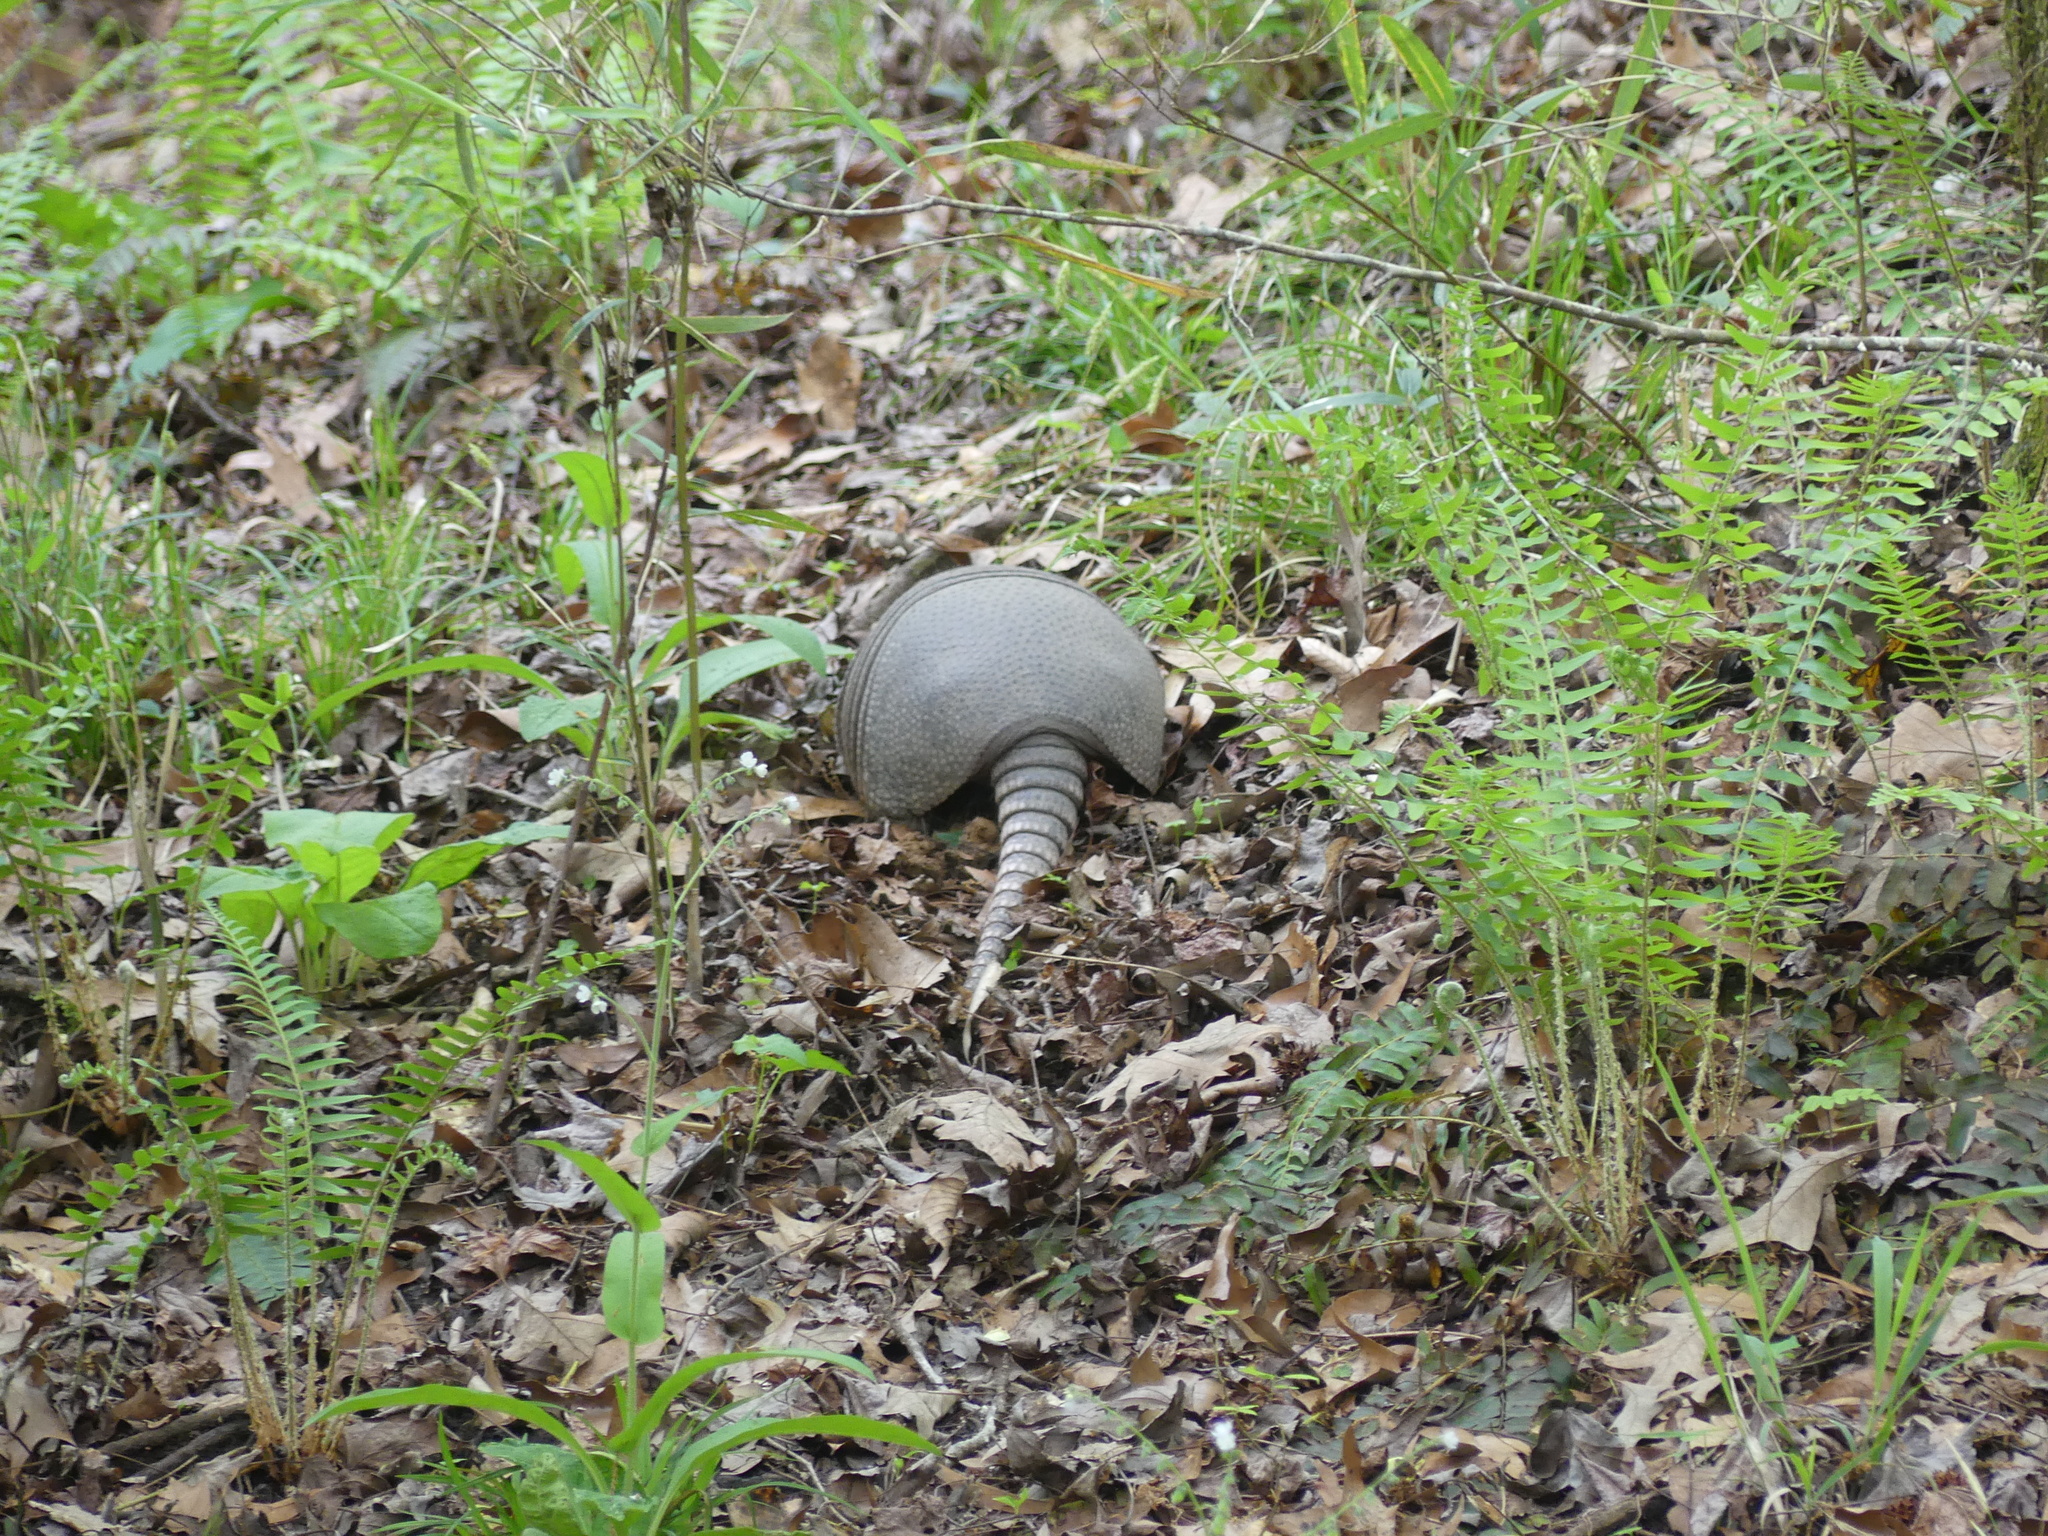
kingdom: Animalia
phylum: Chordata
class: Mammalia
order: Cingulata
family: Dasypodidae
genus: Dasypus
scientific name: Dasypus novemcinctus
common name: Nine-banded armadillo
